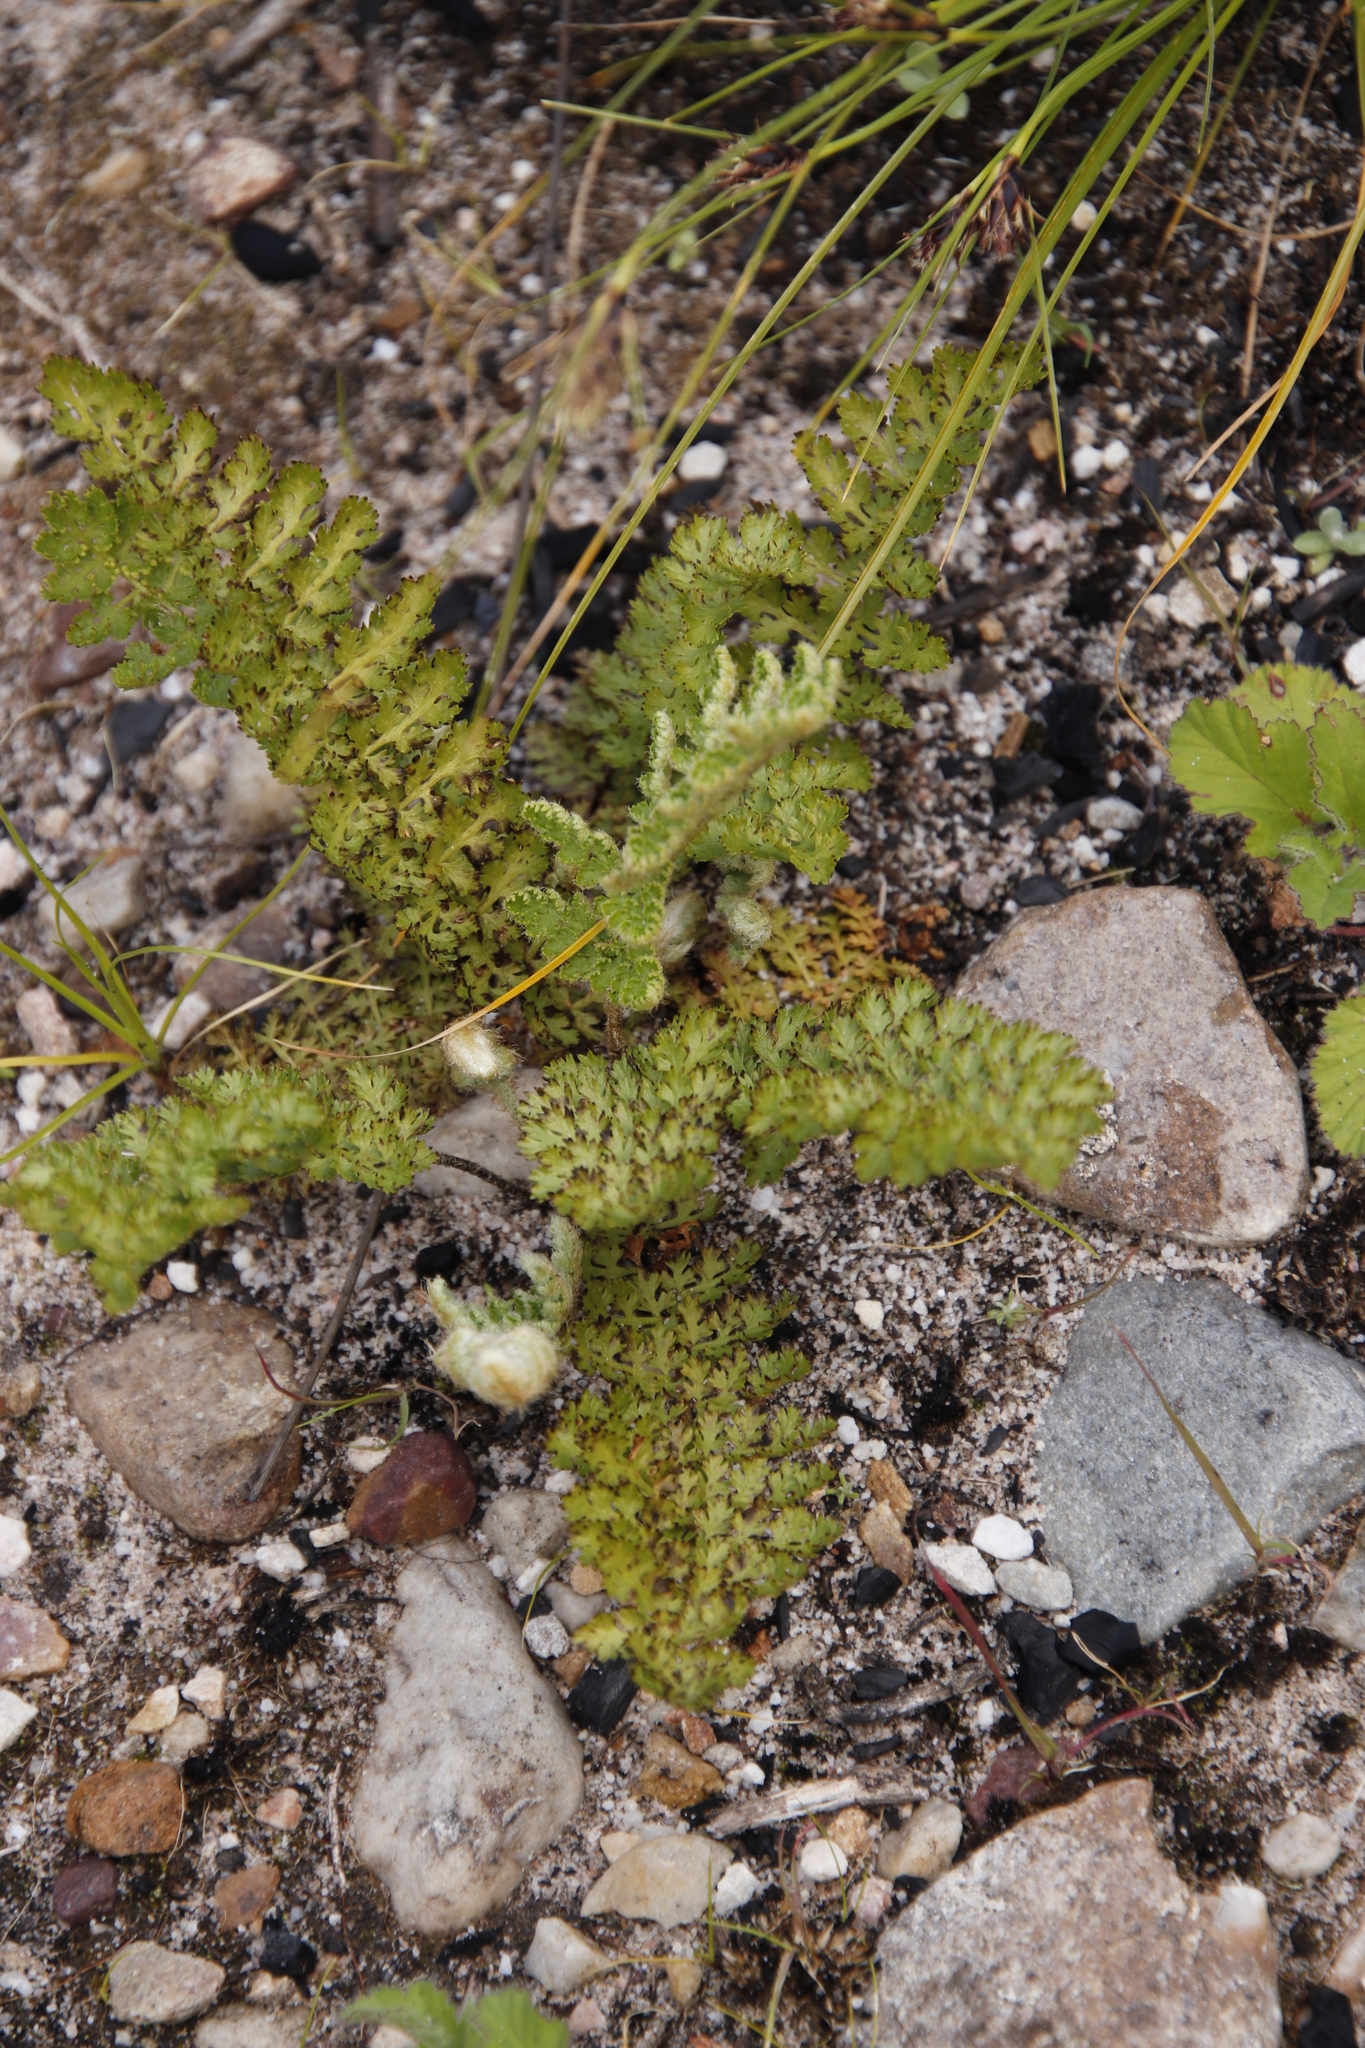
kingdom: Plantae
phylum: Tracheophyta
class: Polypodiopsida
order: Schizaeales
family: Anemiaceae
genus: Anemia
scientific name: Anemia caffrorum
